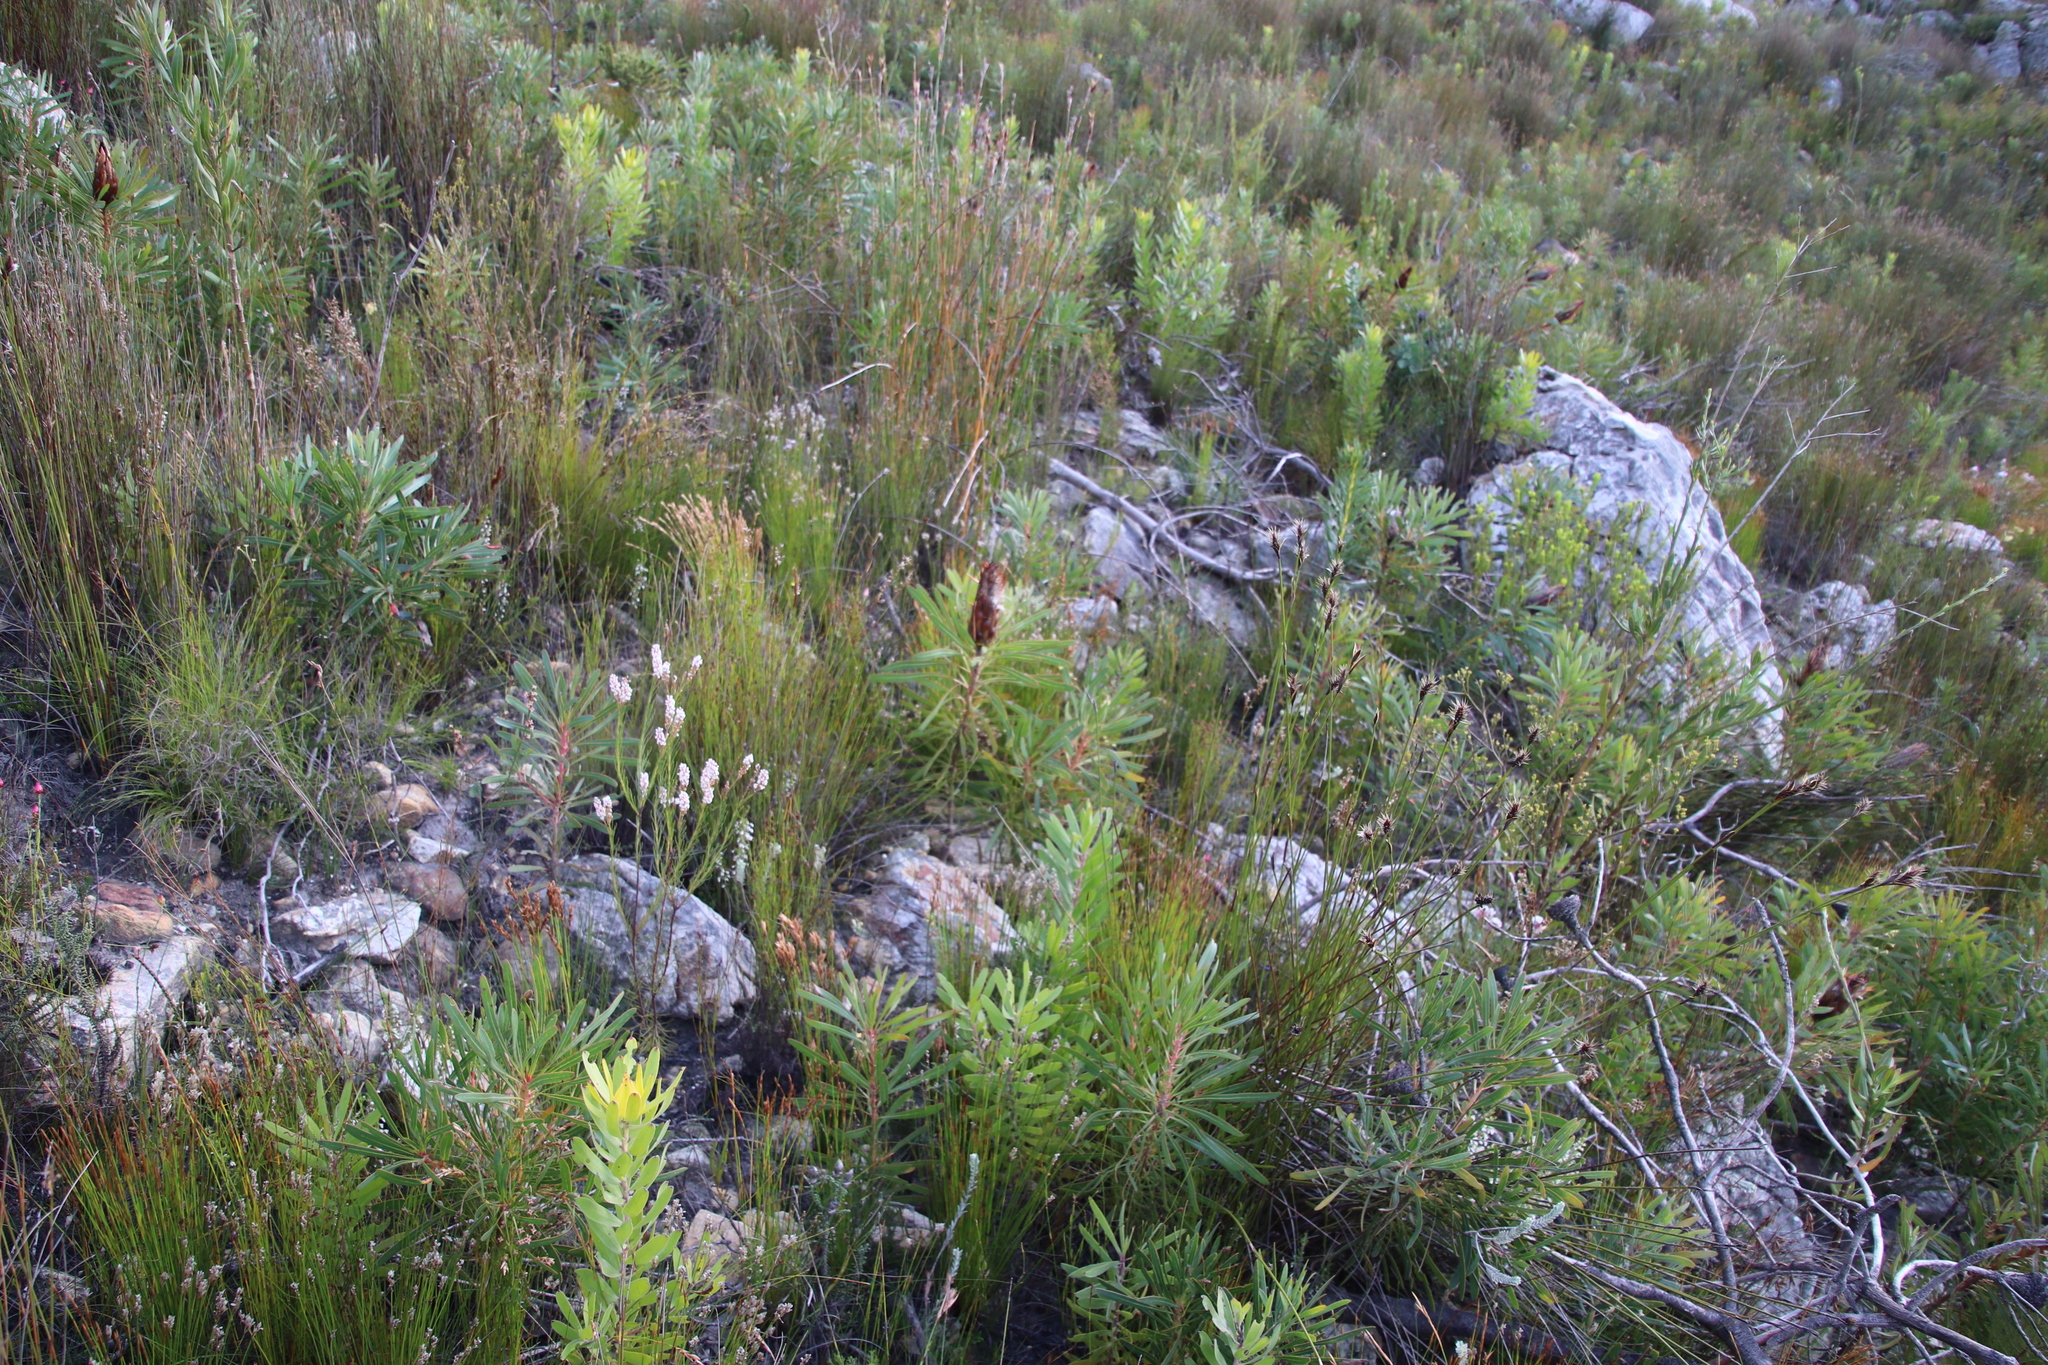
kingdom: Plantae
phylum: Tracheophyta
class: Magnoliopsida
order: Proteales
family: Proteaceae
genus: Protea
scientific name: Protea longifolia
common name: Long-leaf sugarbush
